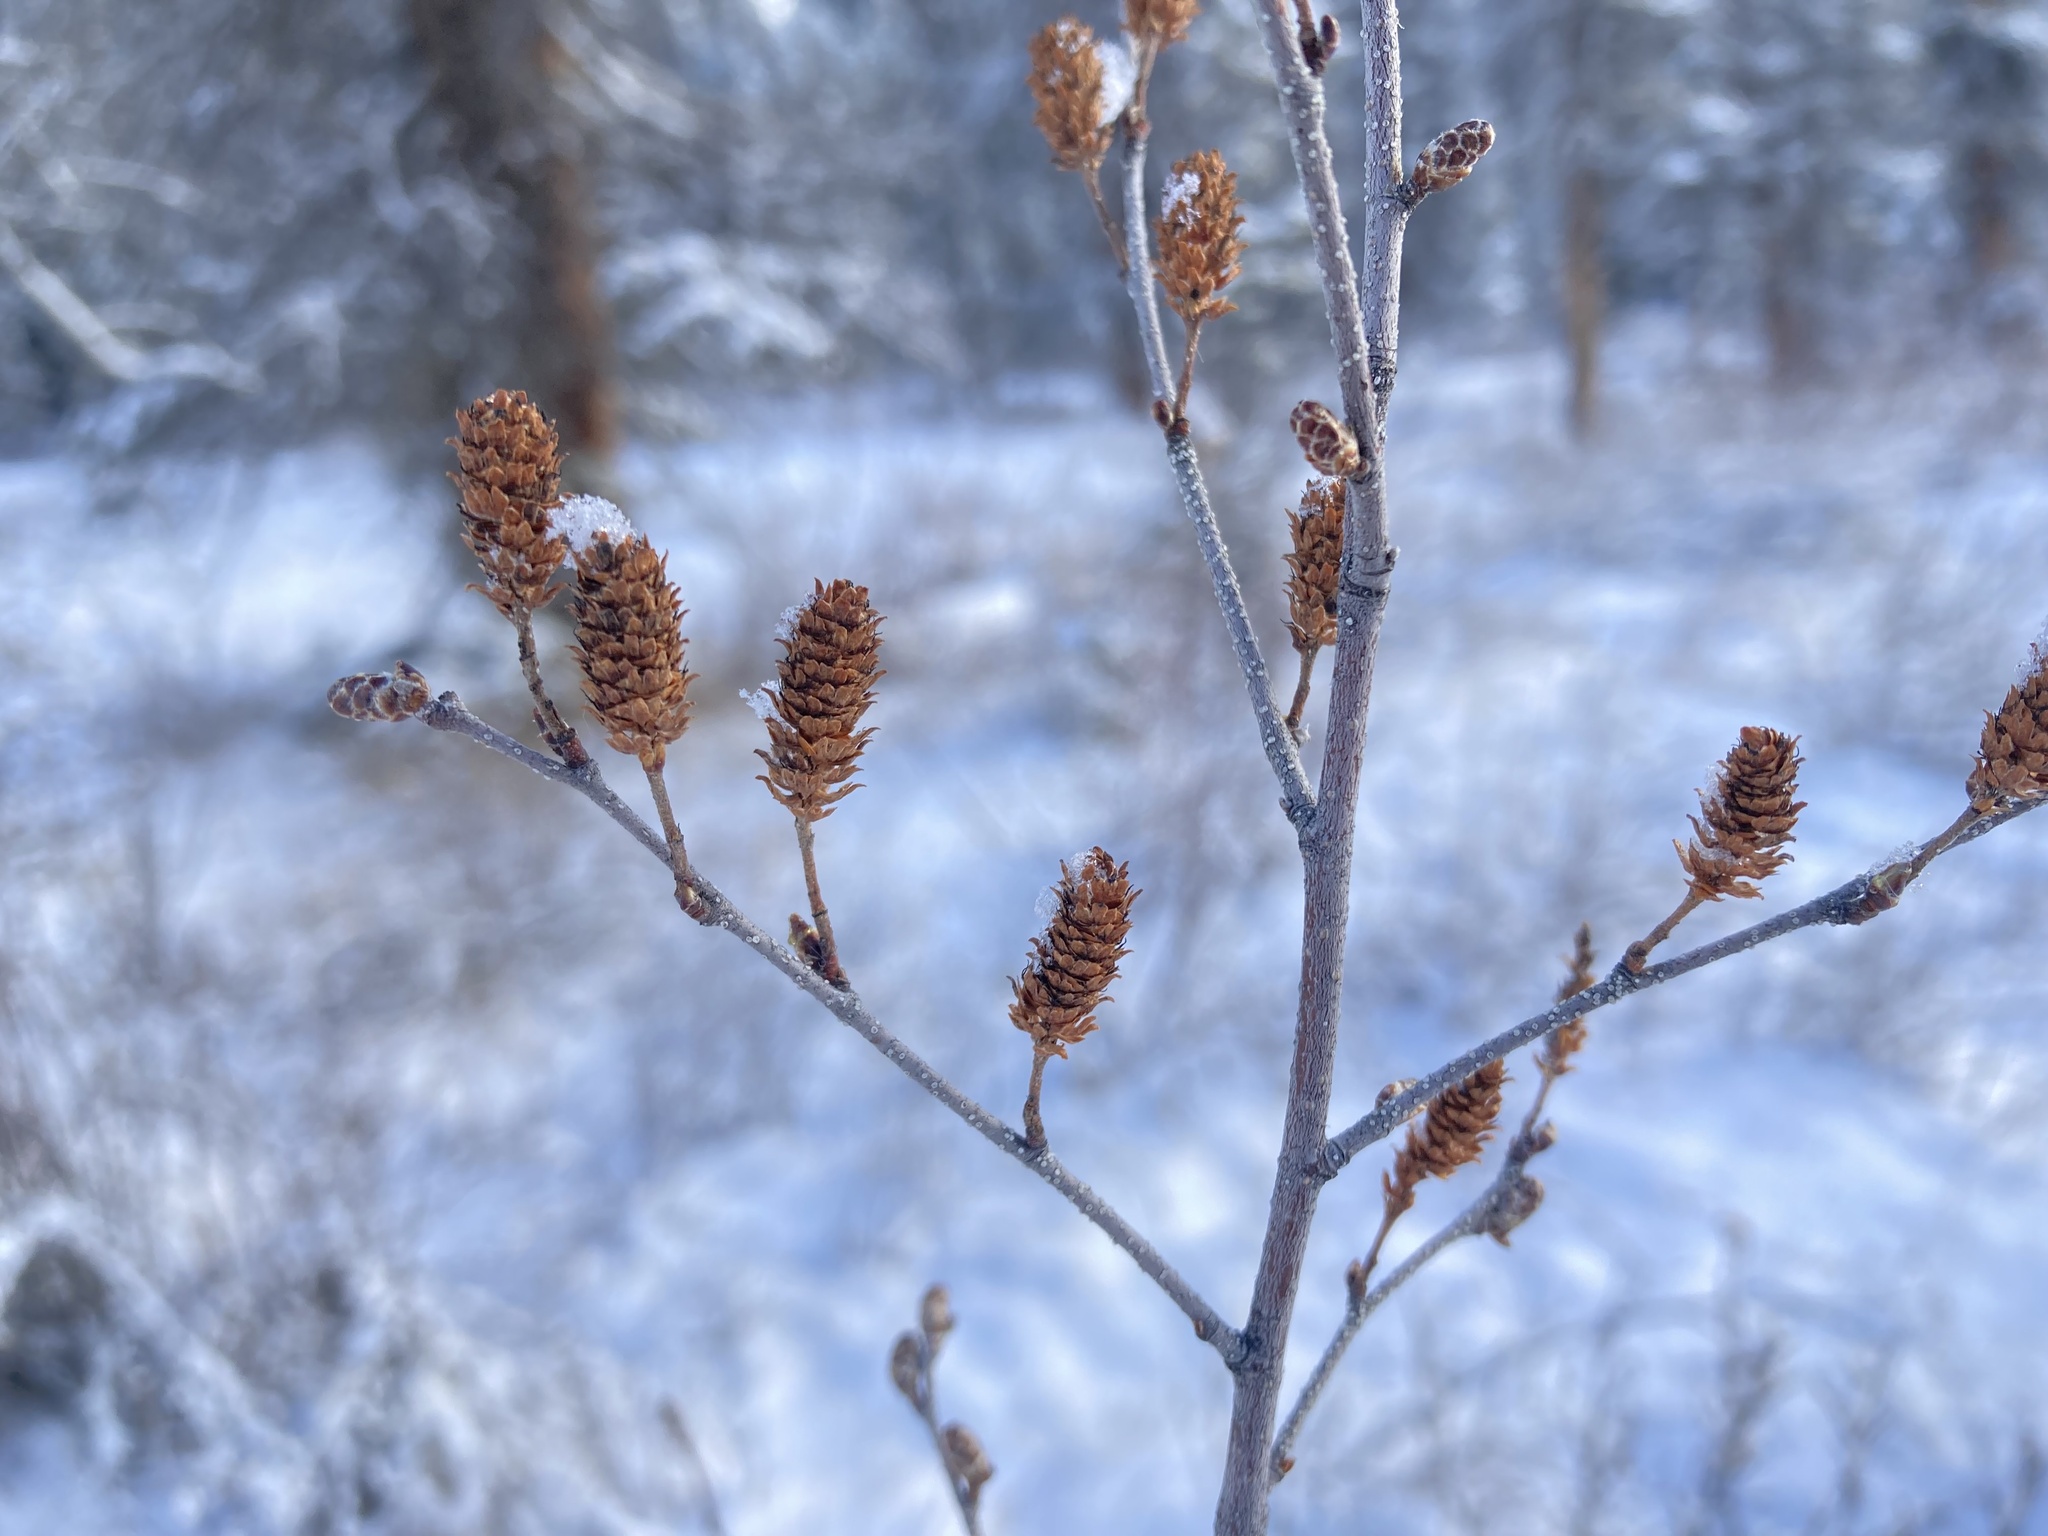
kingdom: Plantae
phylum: Tracheophyta
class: Magnoliopsida
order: Fagales
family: Betulaceae
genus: Betula
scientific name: Betula glandulosa
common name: Dwarf birch
